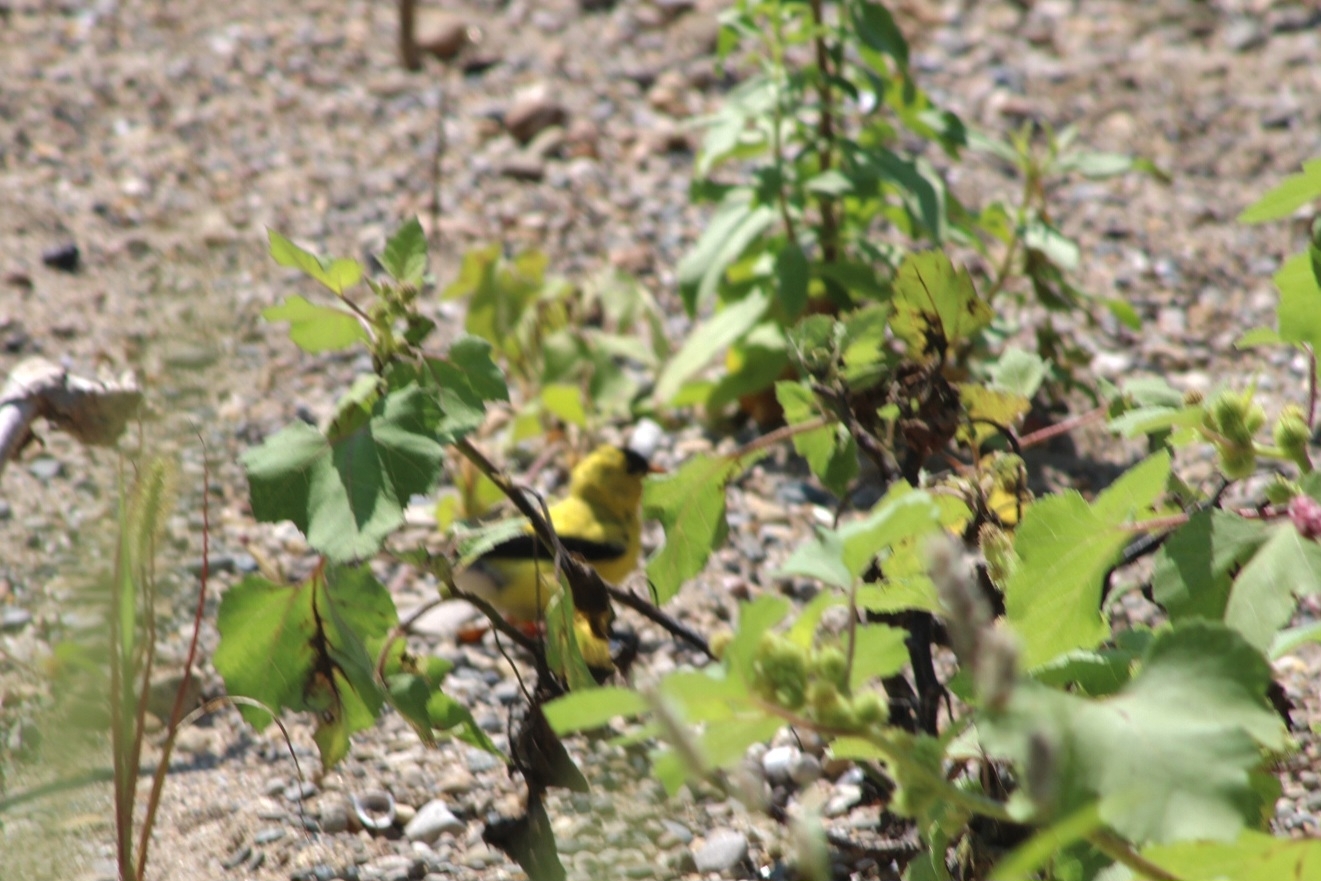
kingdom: Animalia
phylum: Chordata
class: Aves
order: Passeriformes
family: Fringillidae
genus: Spinus
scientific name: Spinus tristis
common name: American goldfinch
